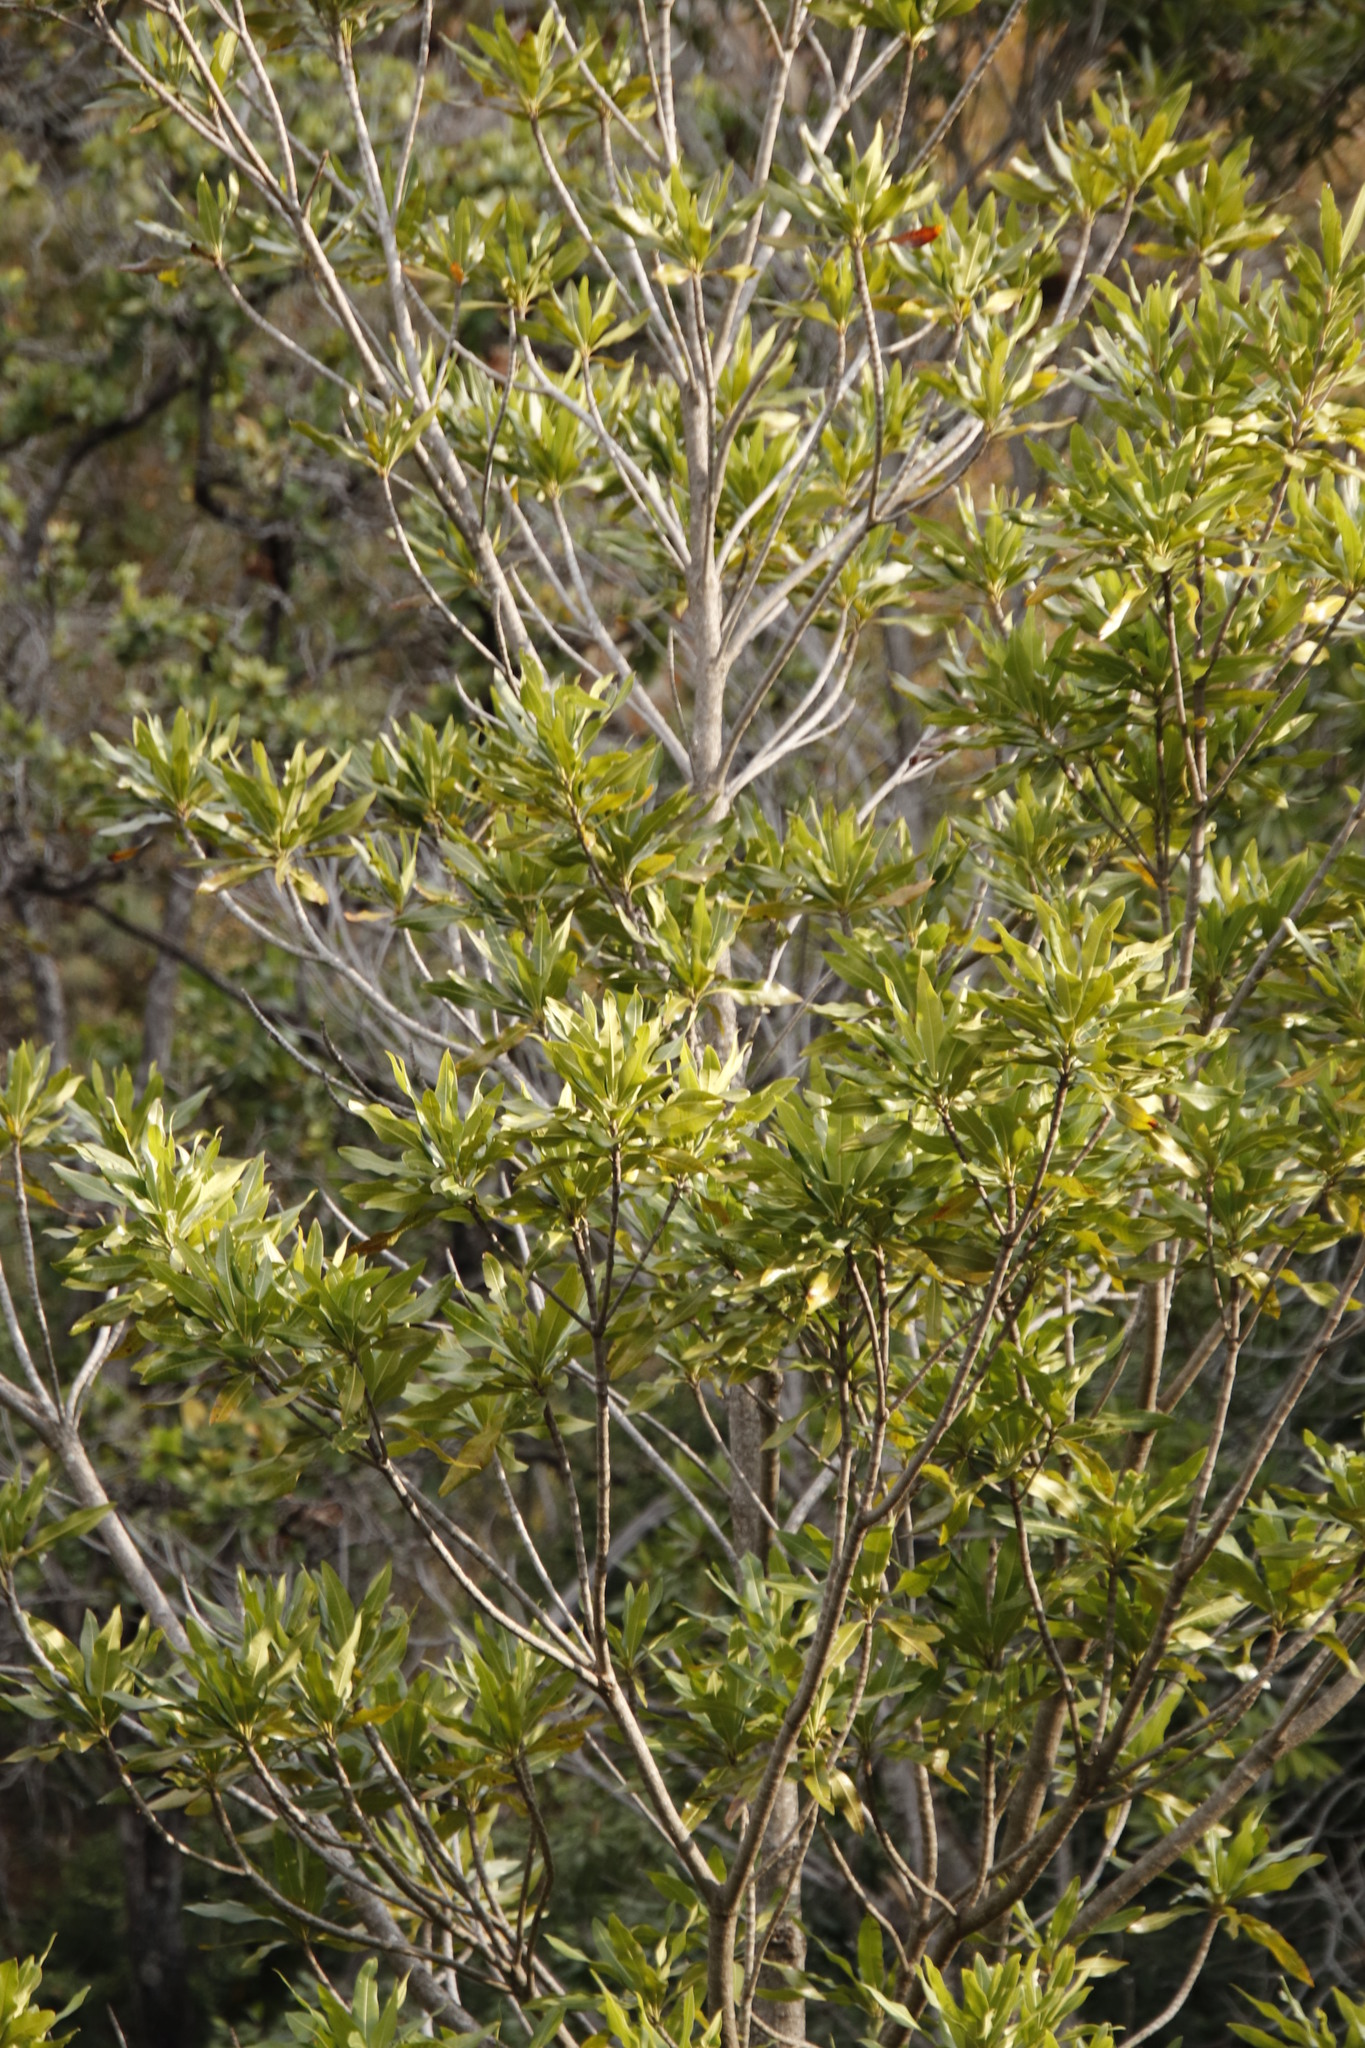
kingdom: Plantae
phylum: Tracheophyta
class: Magnoliopsida
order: Gentianales
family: Rubiaceae
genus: Breonadia
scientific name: Breonadia salicina
